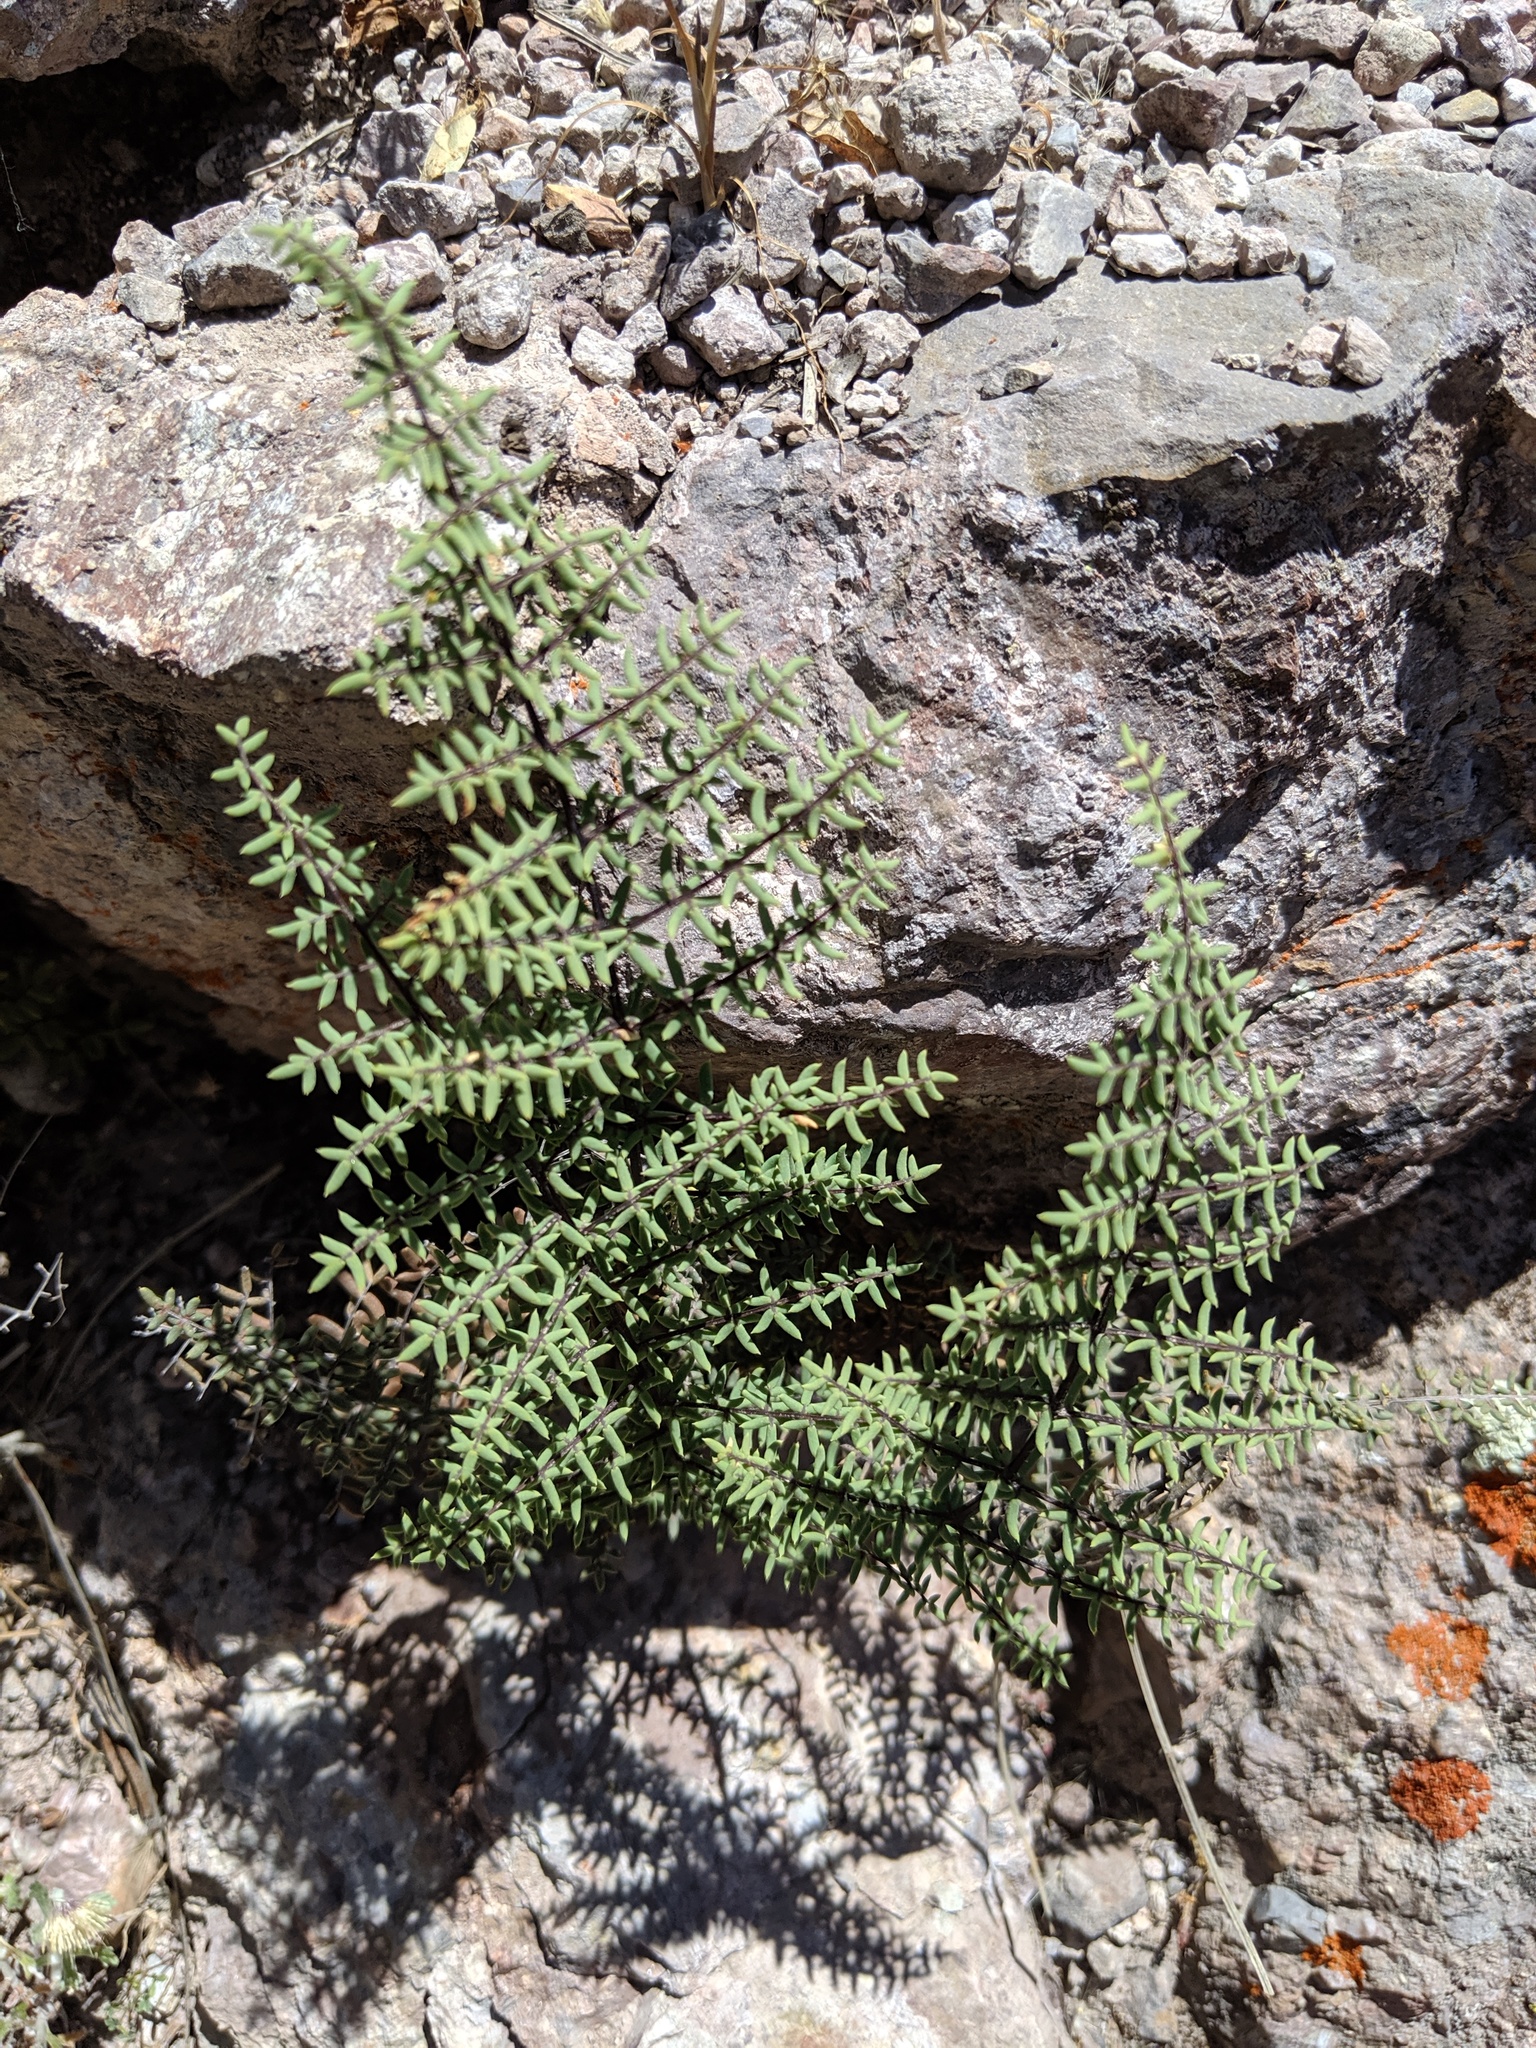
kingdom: Plantae
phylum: Tracheophyta
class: Polypodiopsida
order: Polypodiales
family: Pteridaceae
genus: Pellaea
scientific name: Pellaea mucronata
